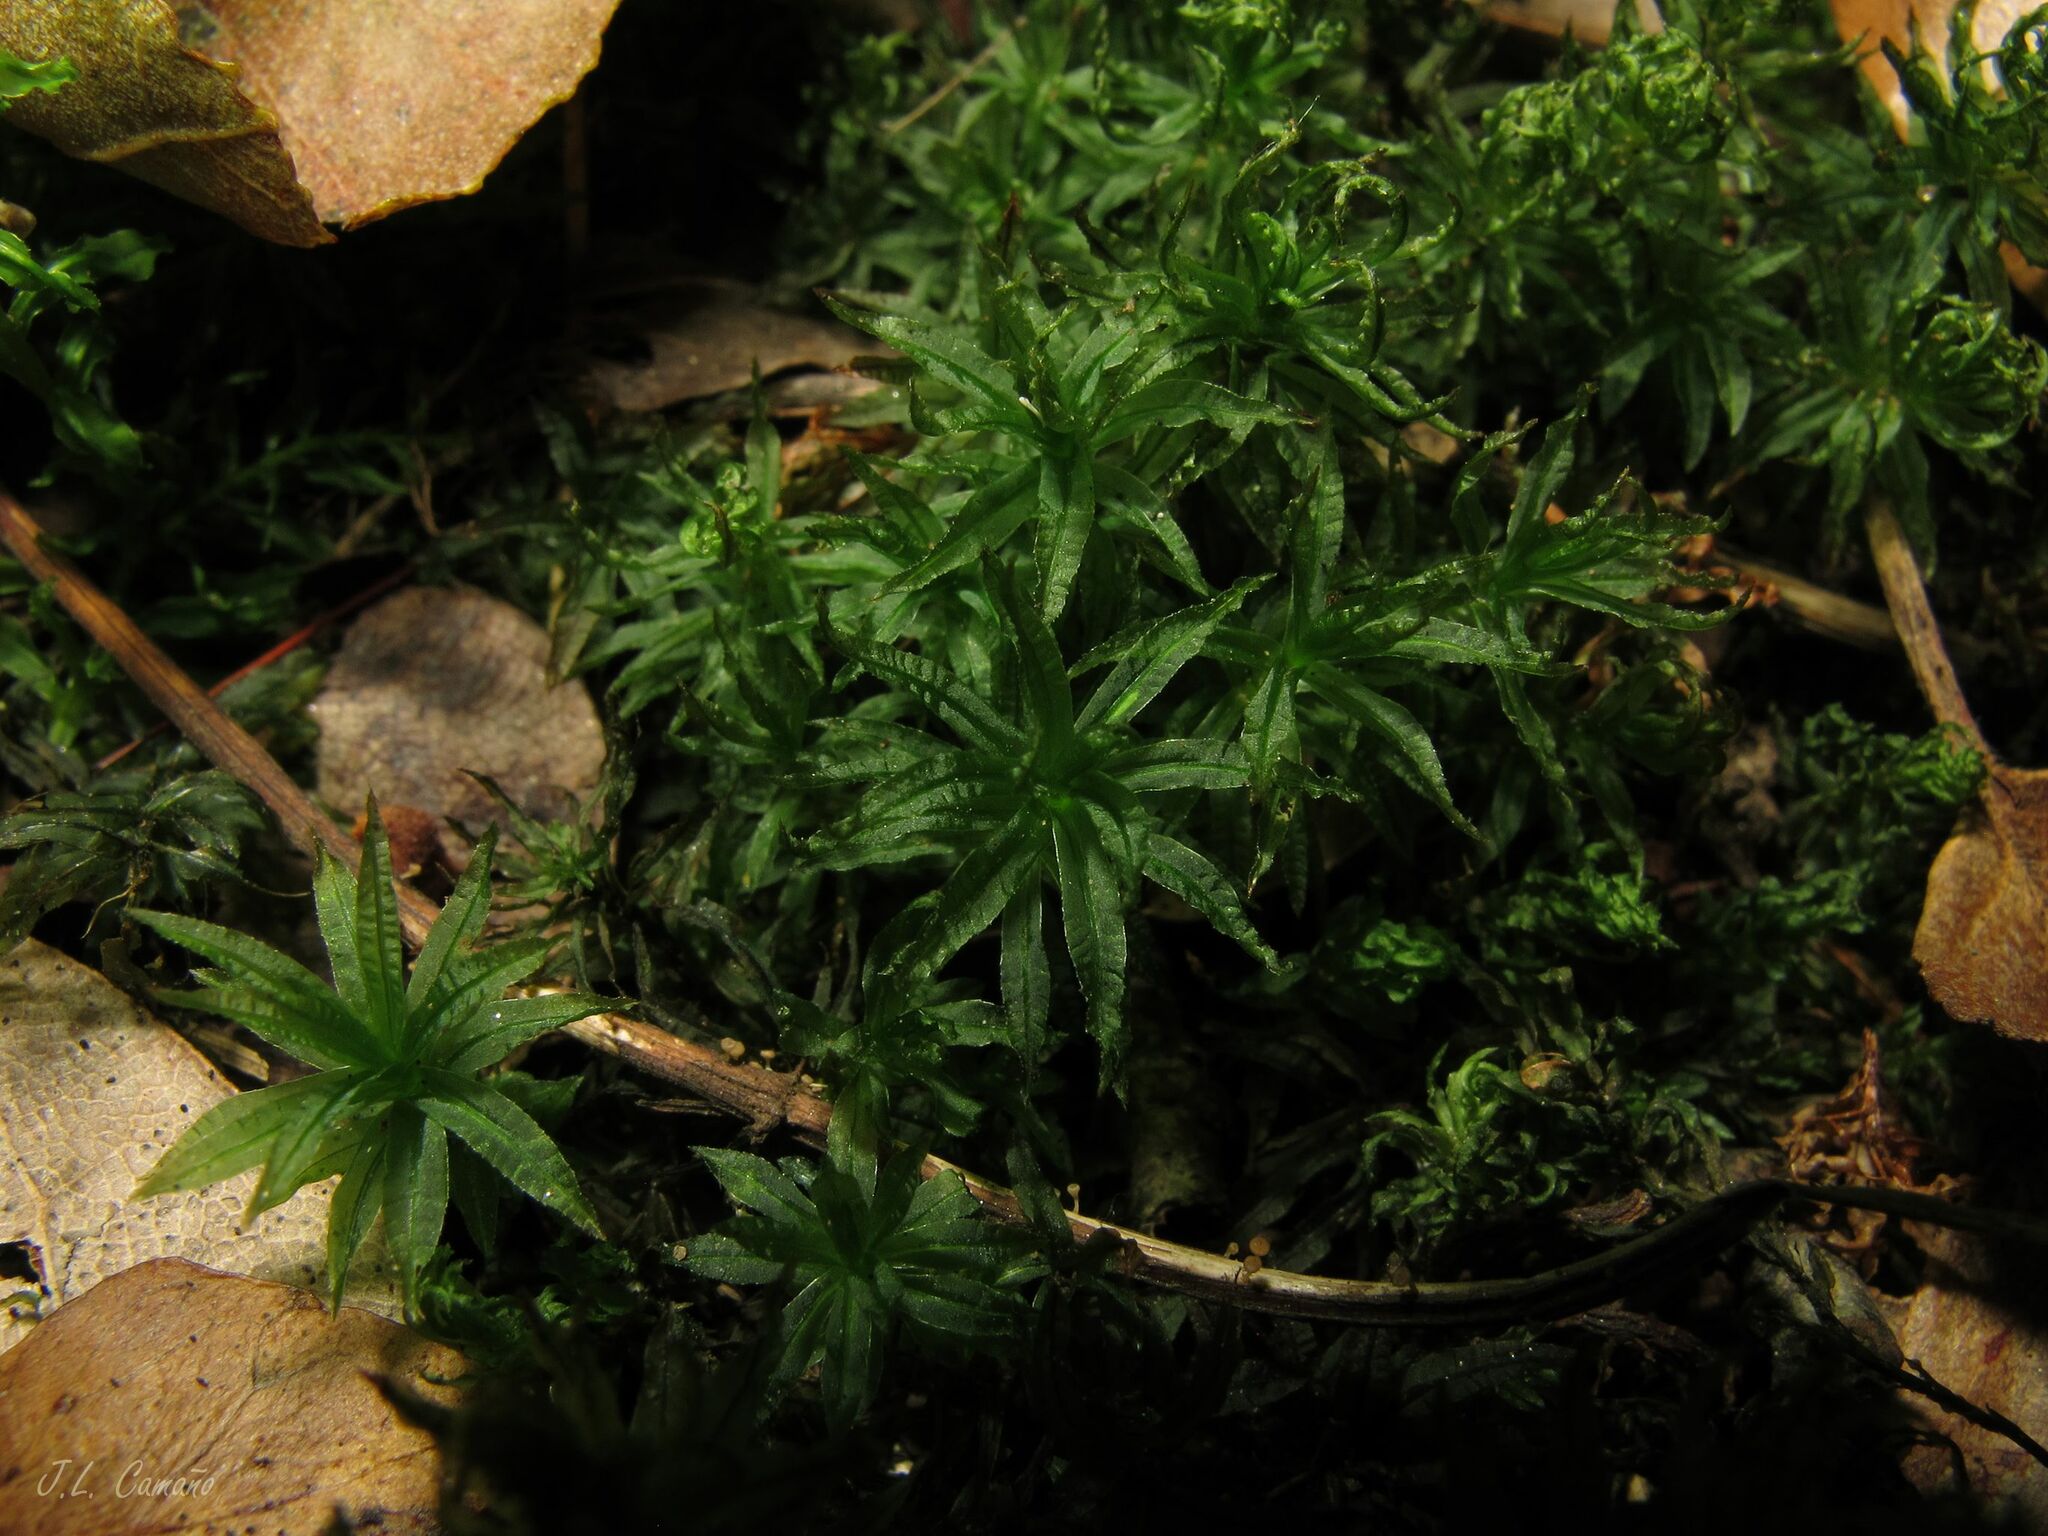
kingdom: Plantae
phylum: Bryophyta
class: Polytrichopsida
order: Polytrichales
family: Polytrichaceae
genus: Atrichum
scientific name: Atrichum undulatum
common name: Common smoothcap
